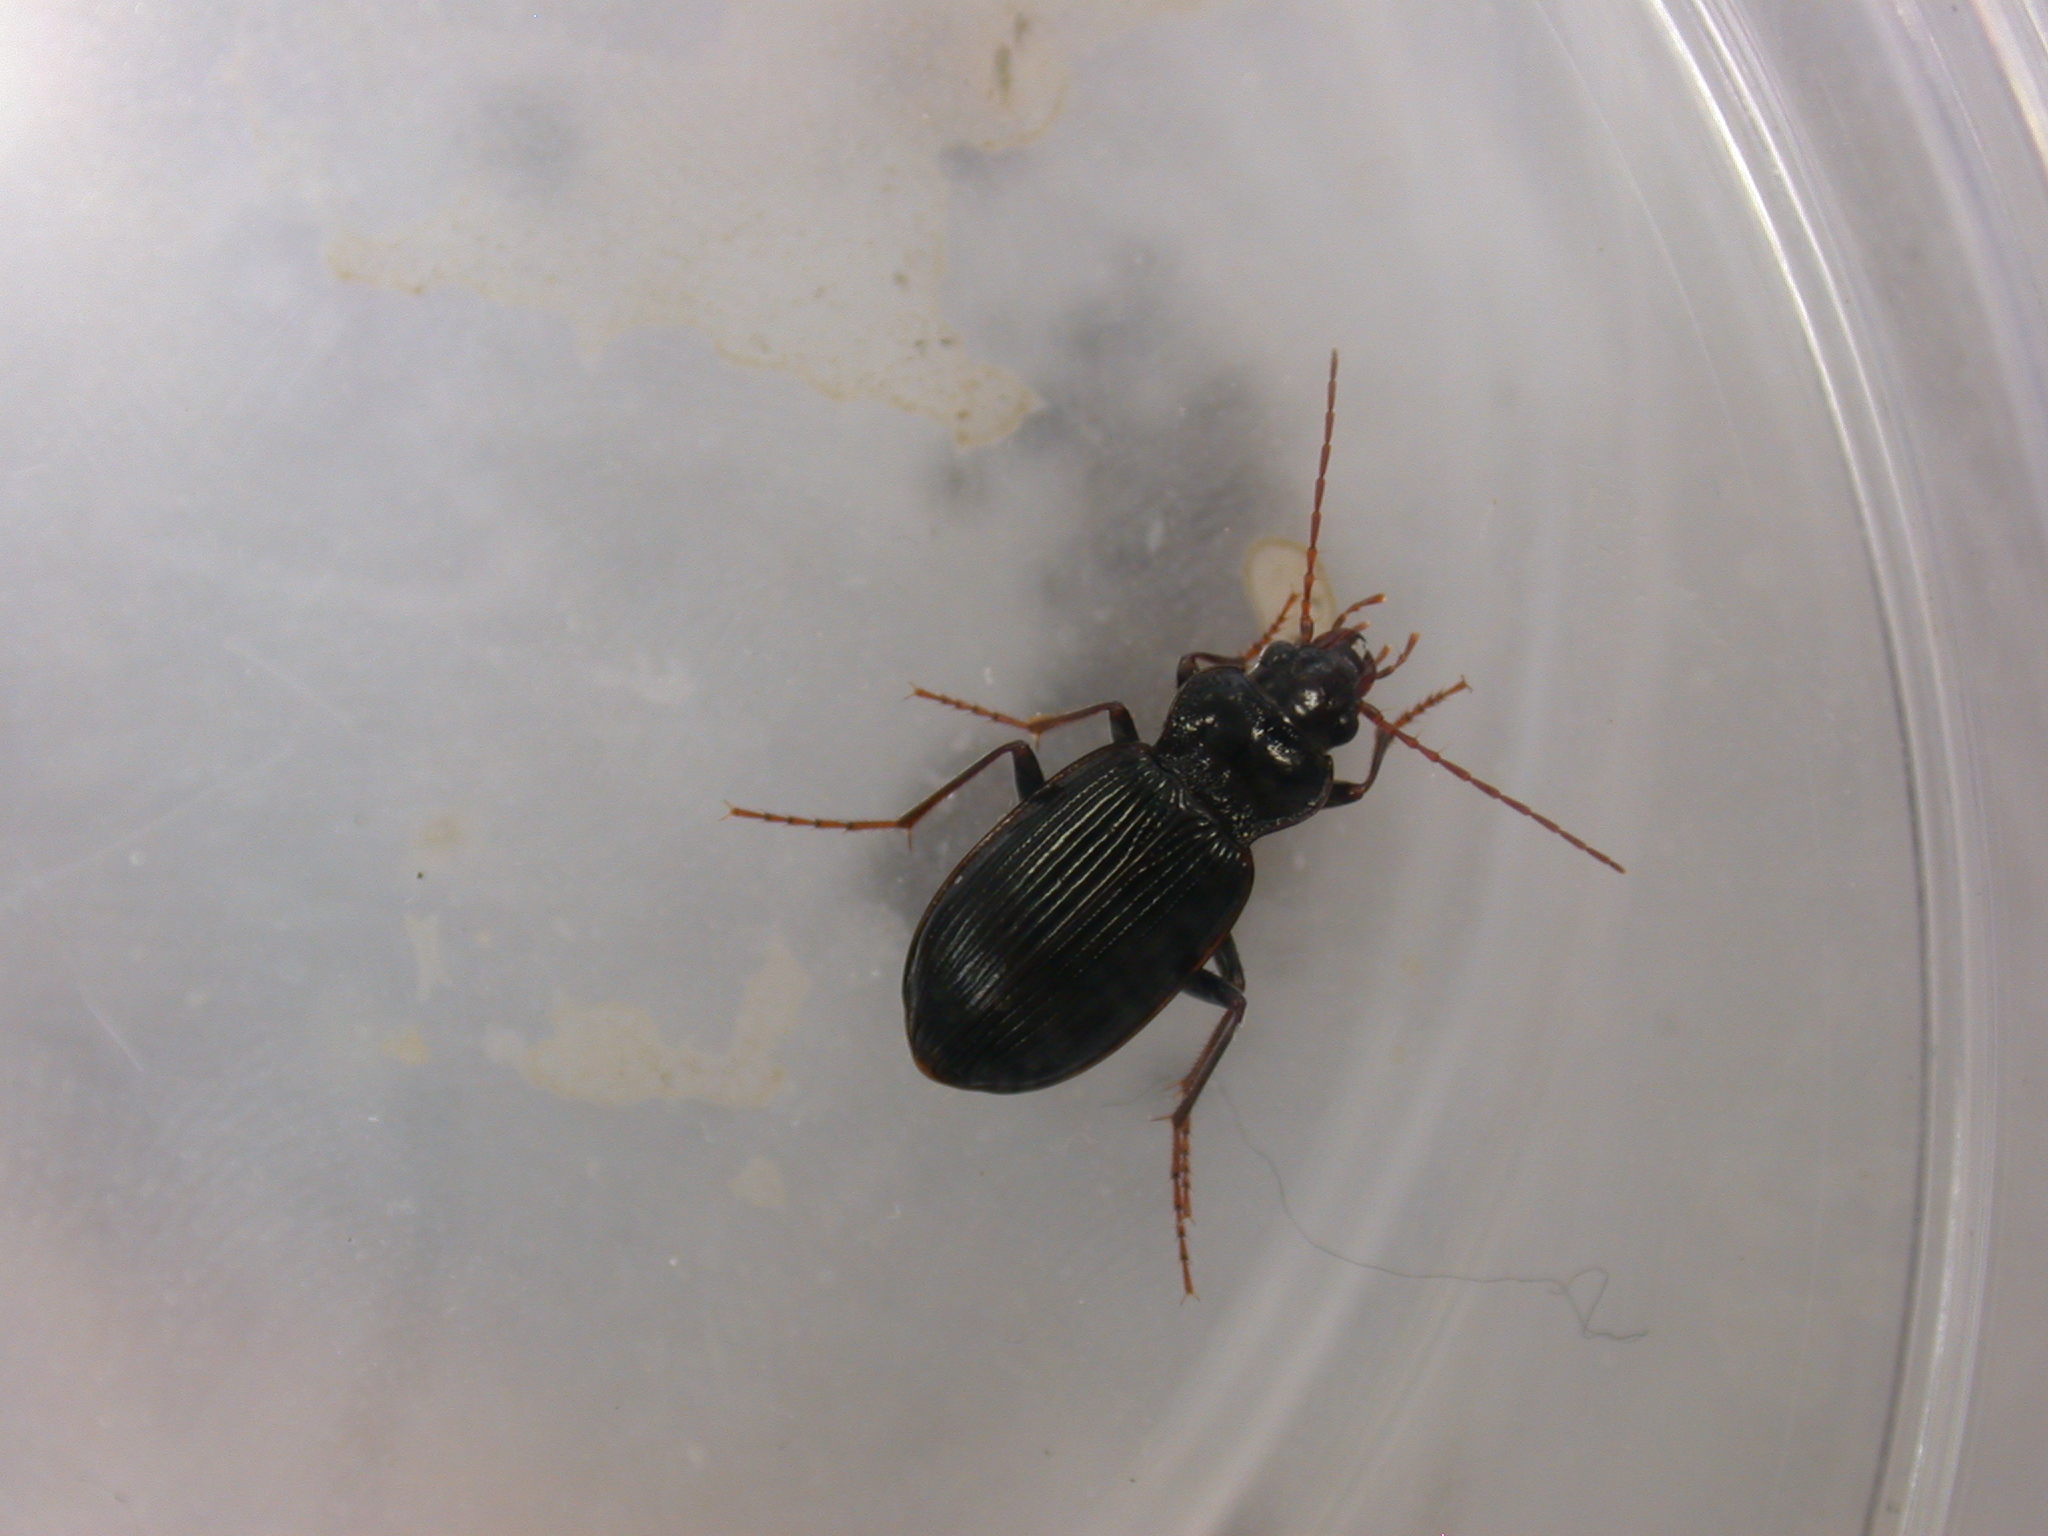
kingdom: Animalia
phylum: Arthropoda
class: Insecta
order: Coleoptera
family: Carabidae
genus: Nebria
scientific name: Nebria brevicollis
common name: Short-necked gazelle beetle
